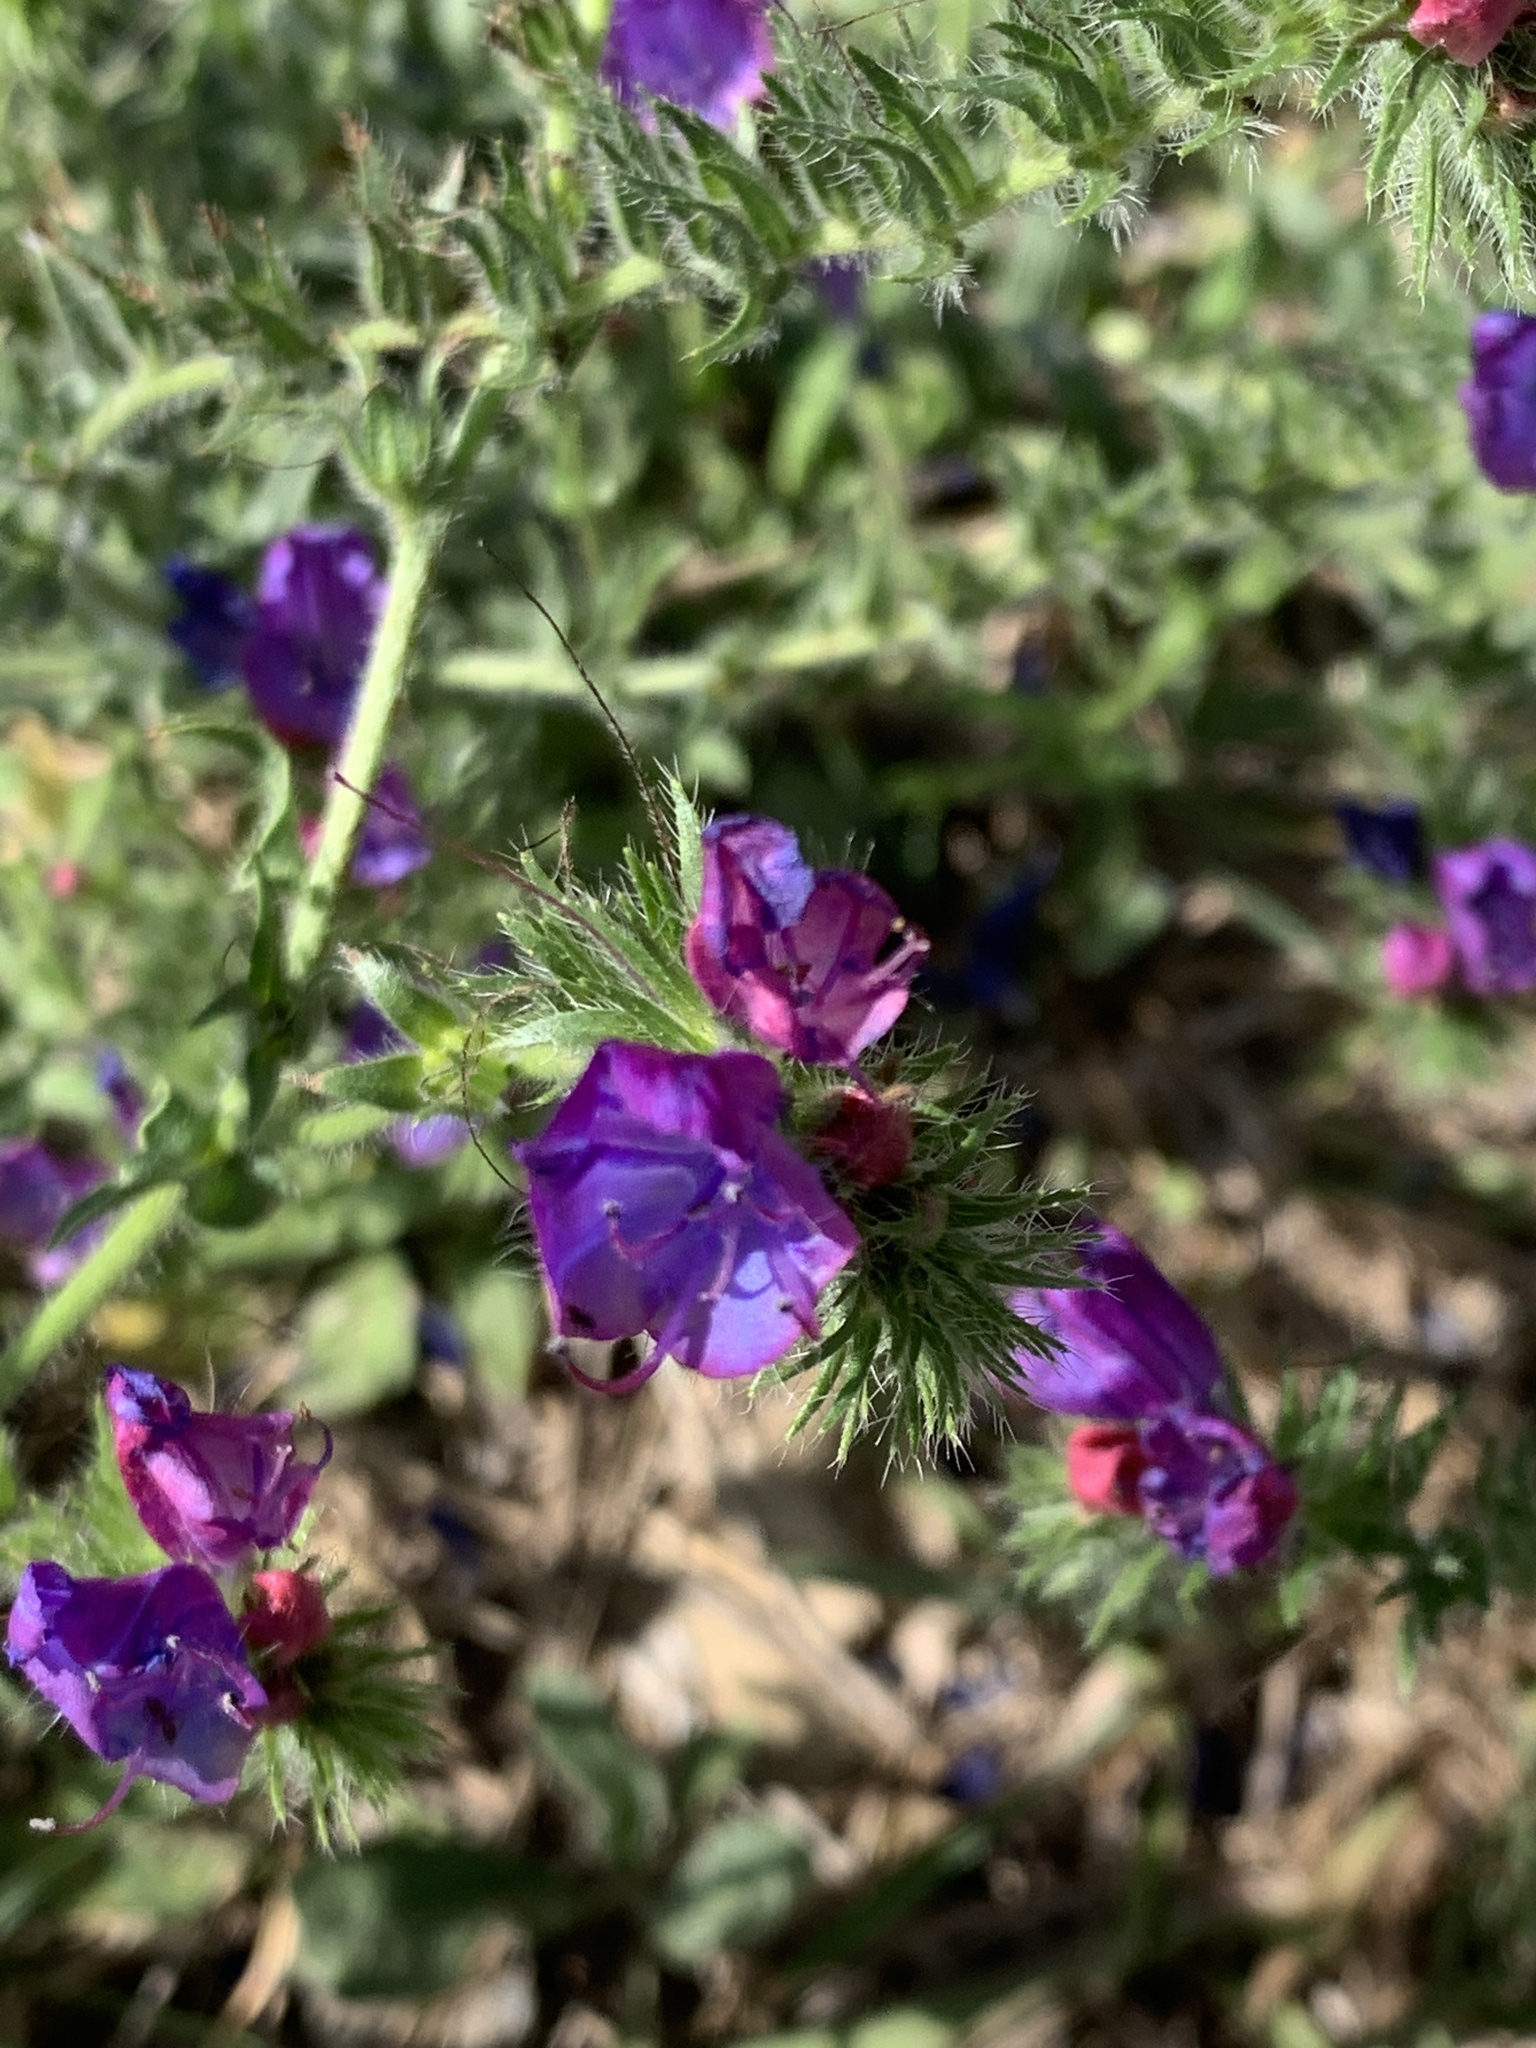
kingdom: Plantae
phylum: Tracheophyta
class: Magnoliopsida
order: Boraginales
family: Boraginaceae
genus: Echium
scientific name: Echium plantagineum
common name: Purple viper's-bugloss
